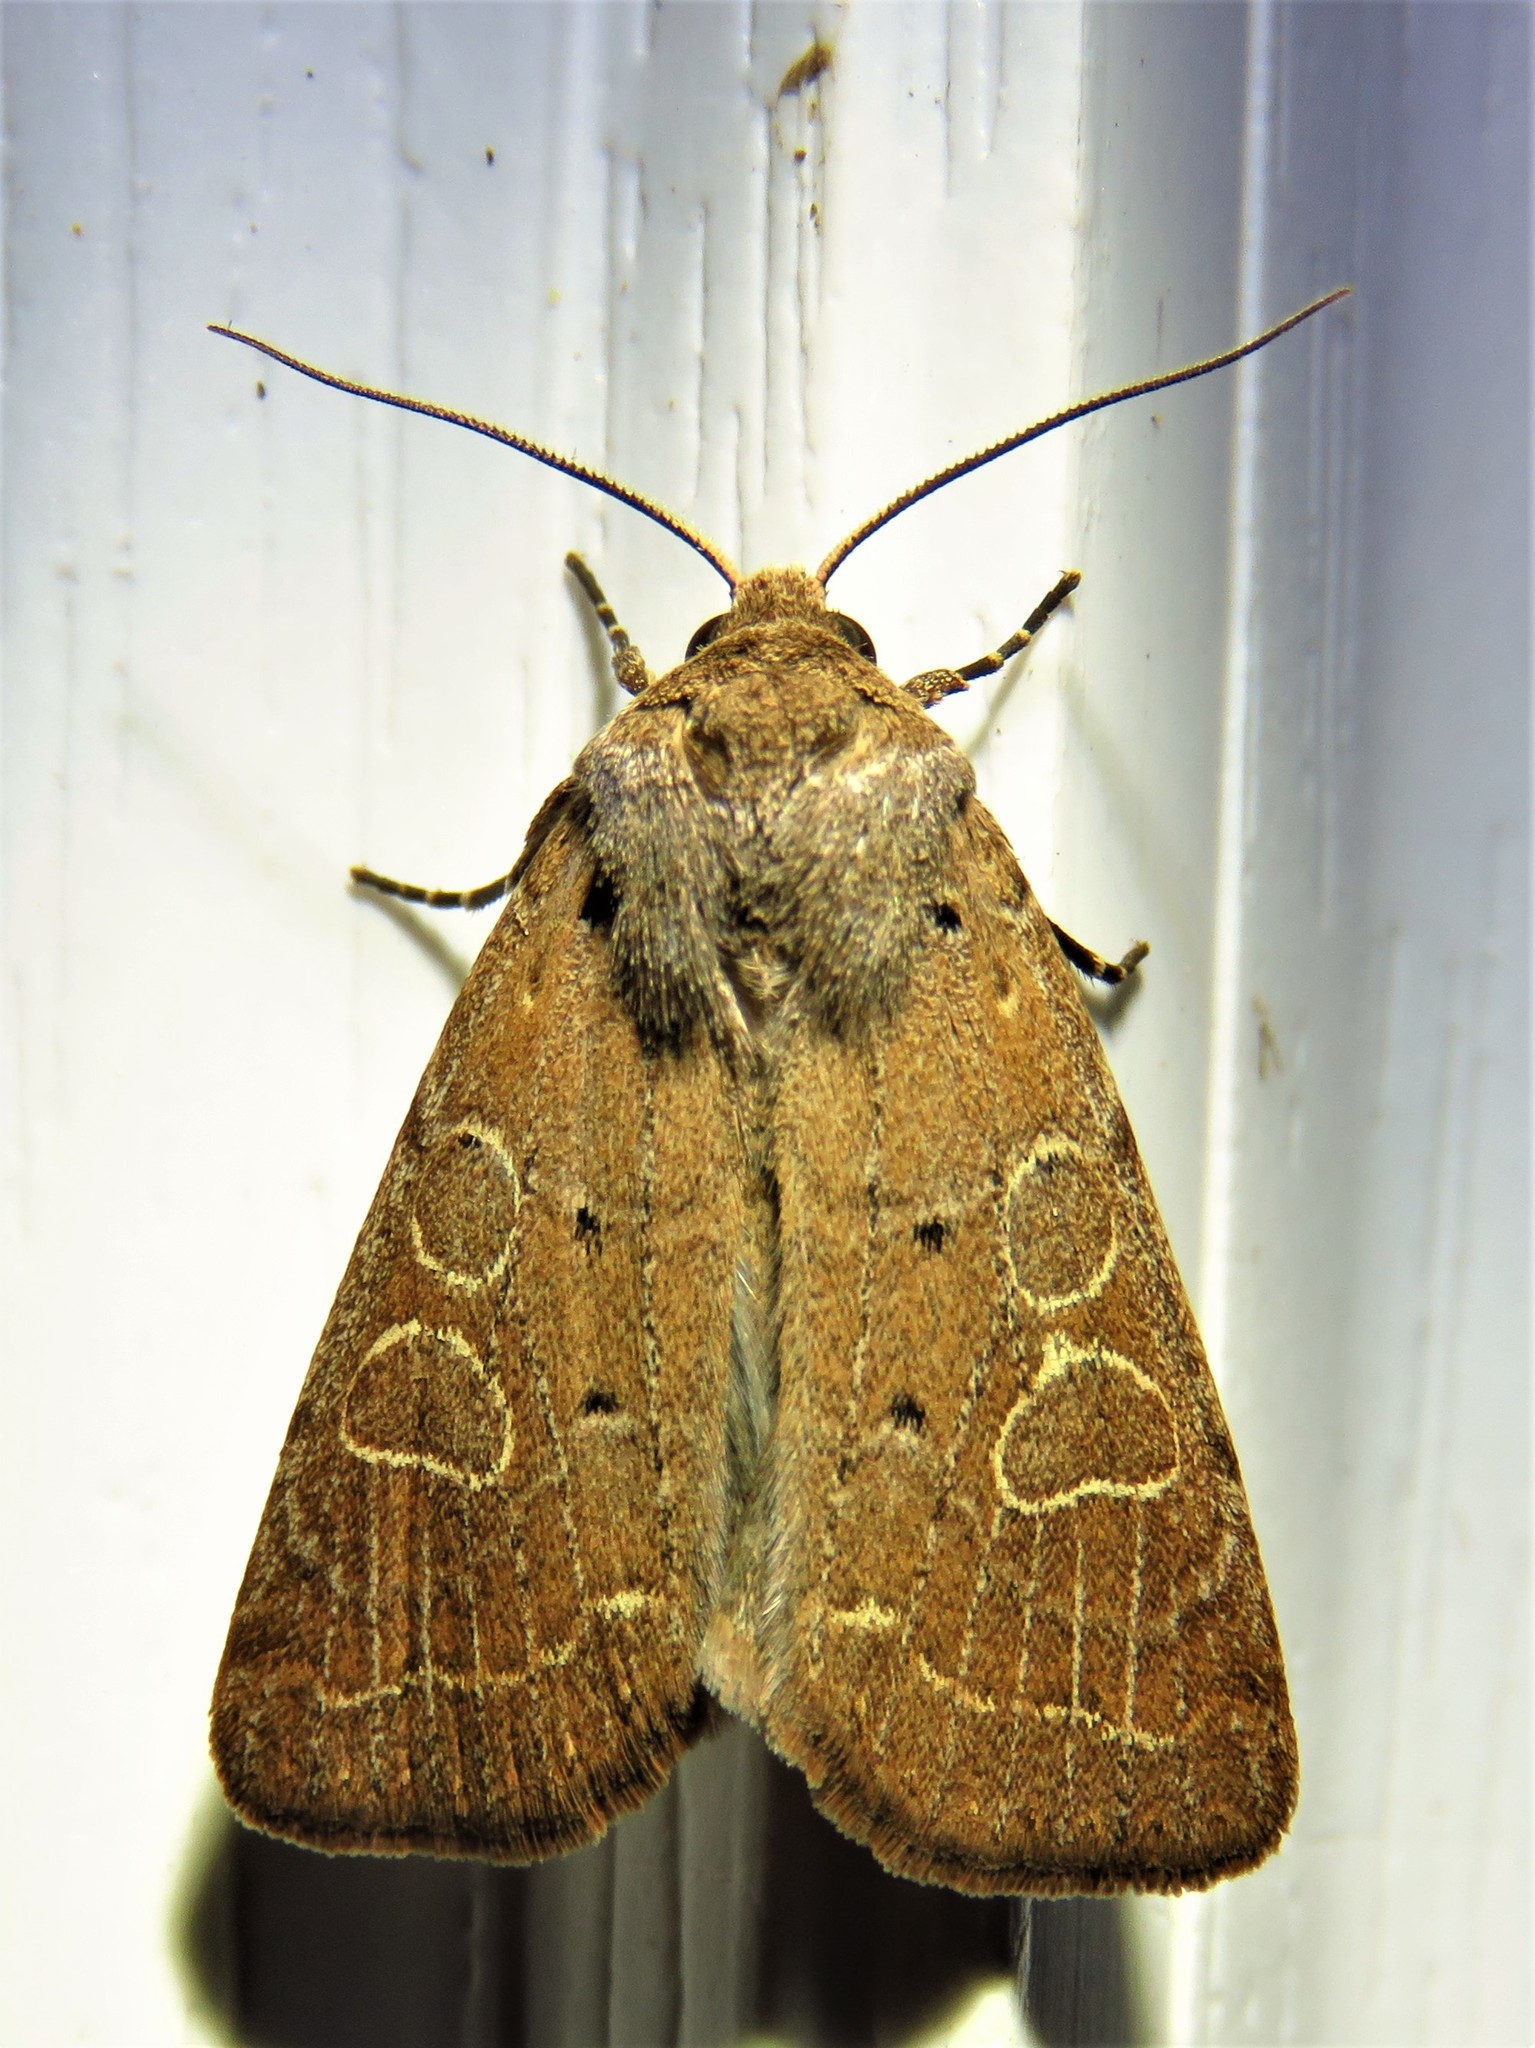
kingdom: Animalia
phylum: Arthropoda
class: Insecta
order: Lepidoptera
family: Noctuidae
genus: Kocakina
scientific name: Kocakina fidelis
